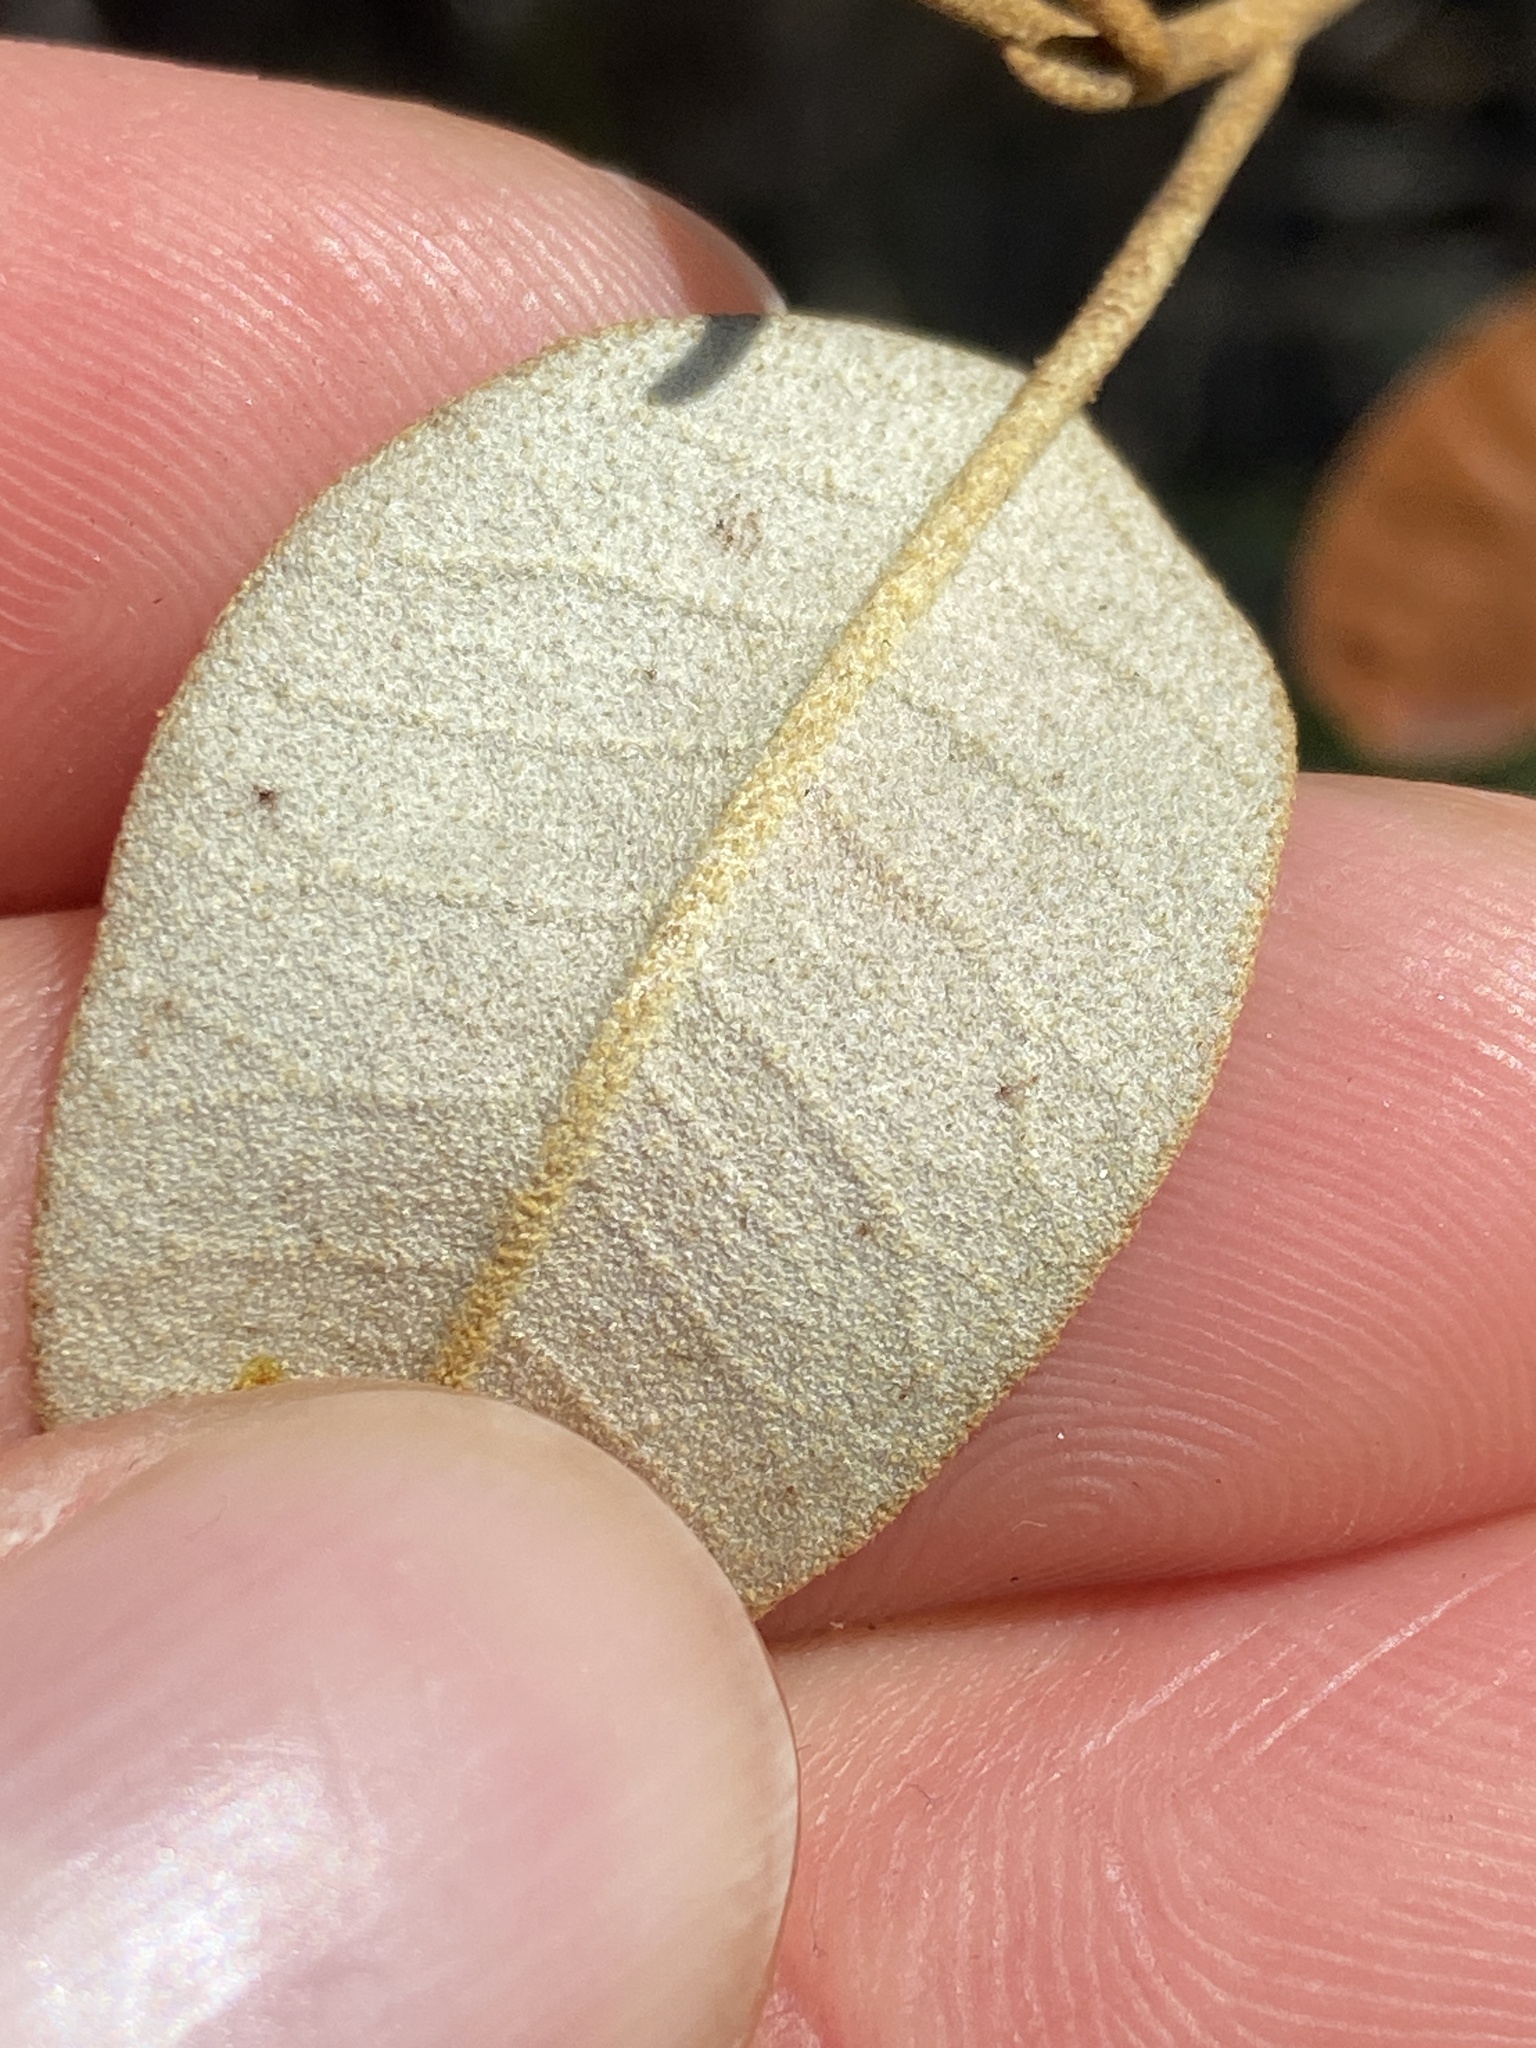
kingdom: Plantae
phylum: Tracheophyta
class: Magnoliopsida
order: Malpighiales
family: Euphorbiaceae
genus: Croton
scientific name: Croton discolor
